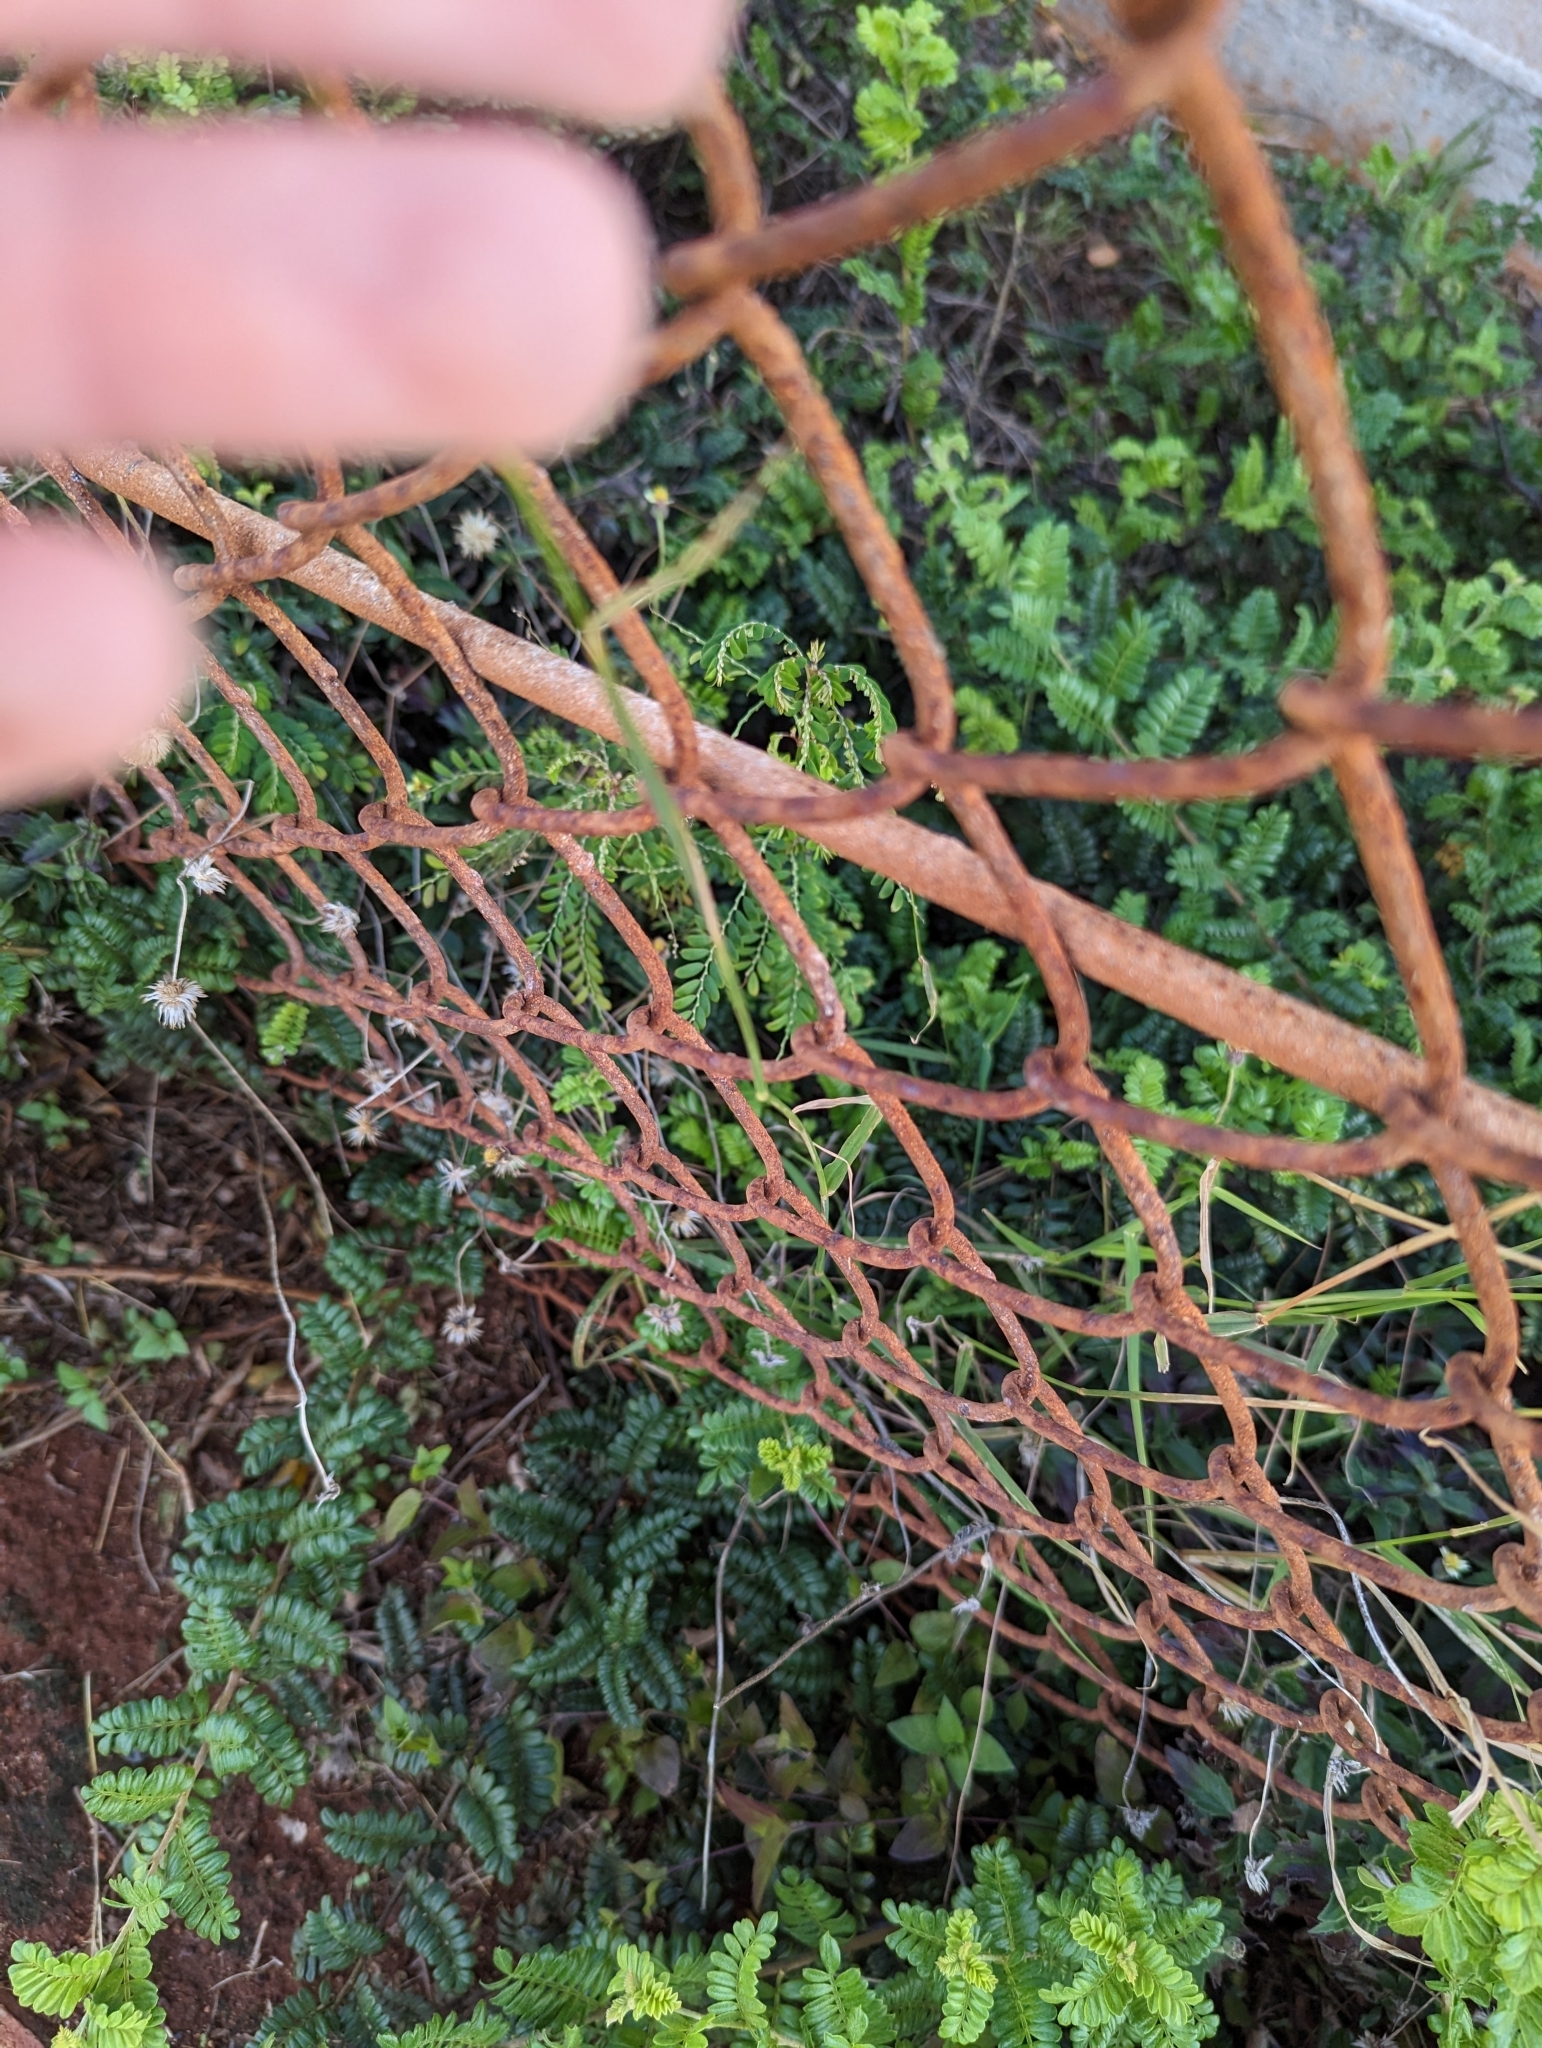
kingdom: Plantae
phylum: Tracheophyta
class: Liliopsida
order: Poales
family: Poaceae
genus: Chloris
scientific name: Chloris barbata
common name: Swollen fingergrass
